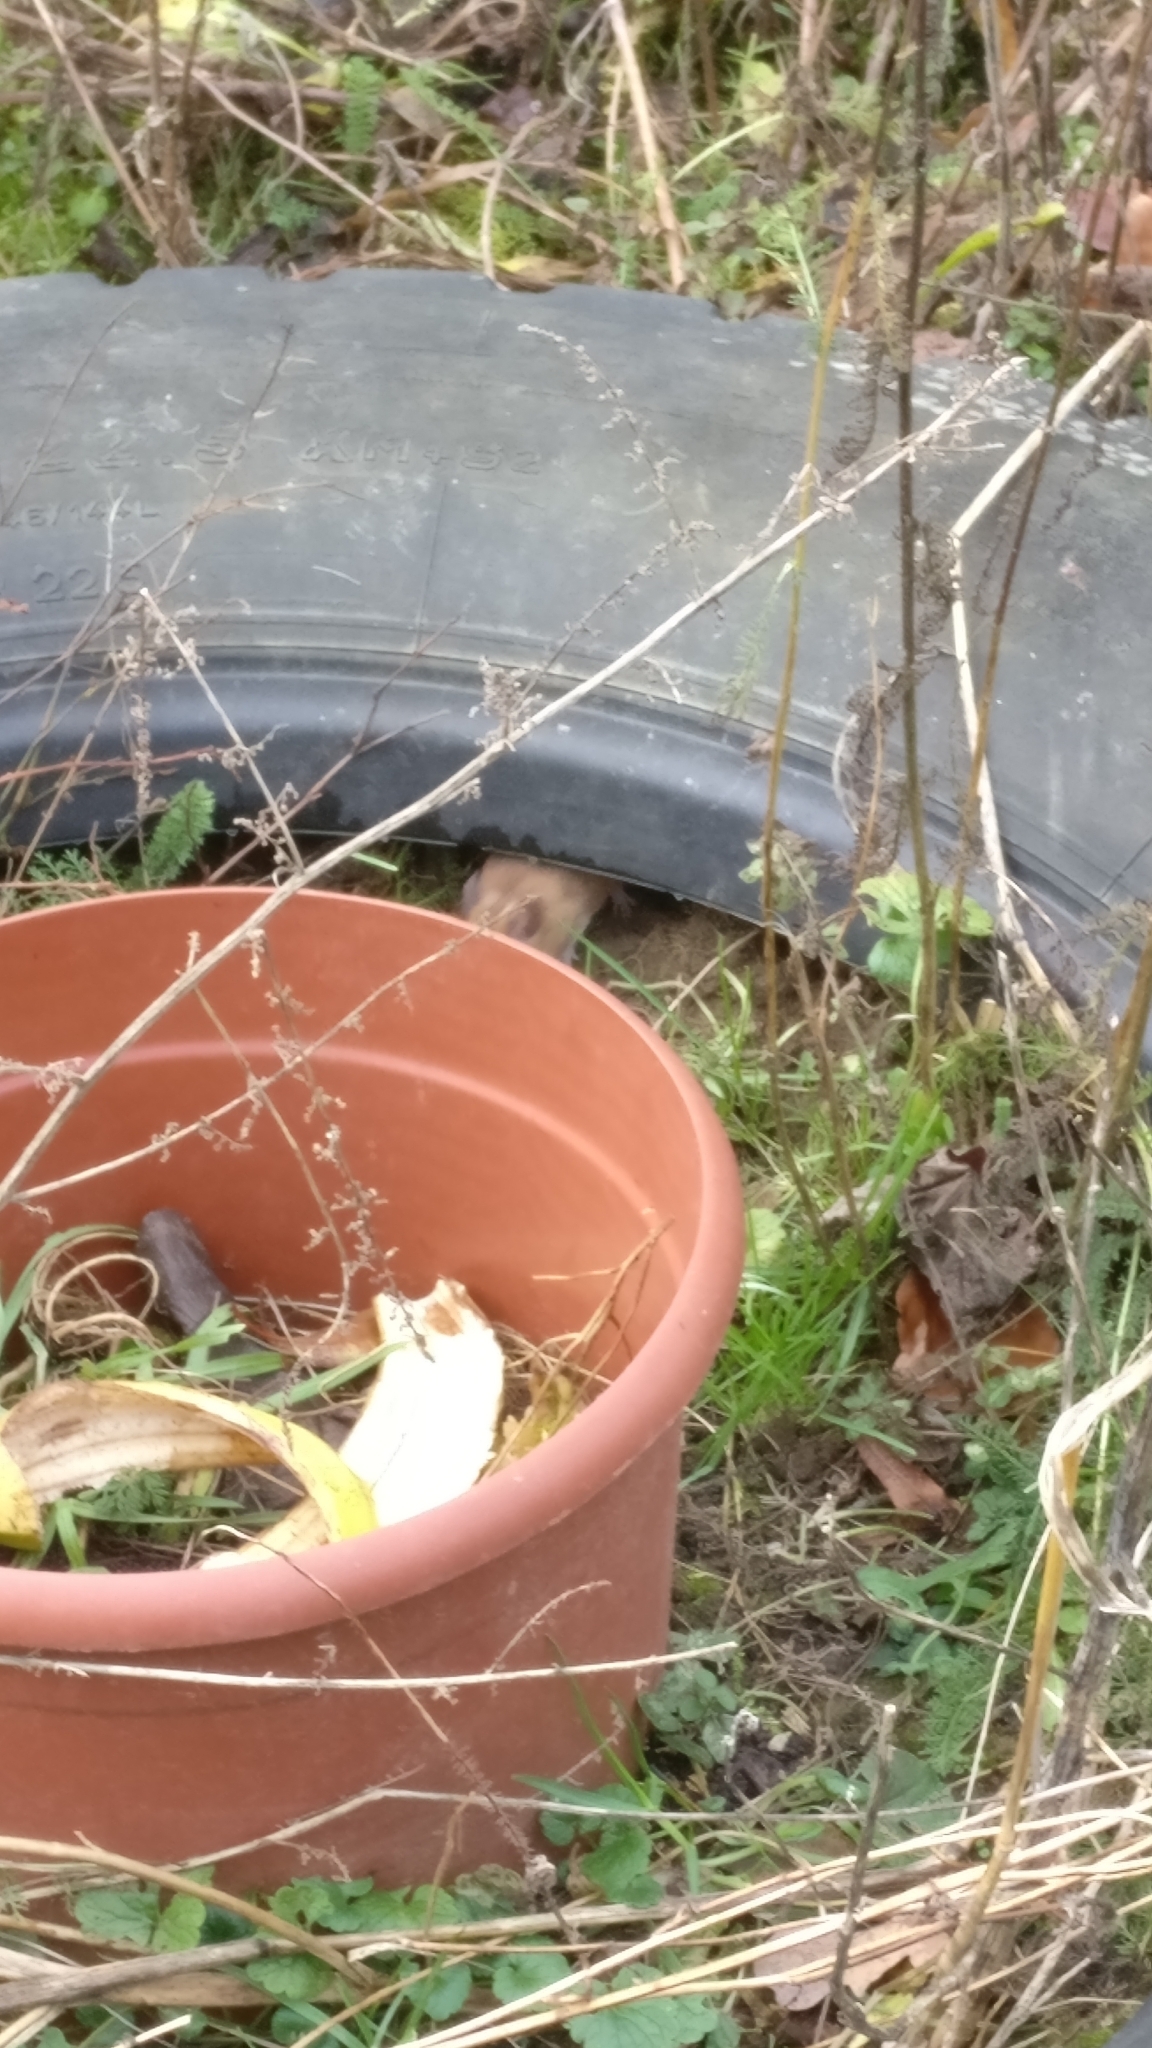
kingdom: Animalia
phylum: Chordata
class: Mammalia
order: Rodentia
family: Muridae
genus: Apodemus
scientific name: Apodemus sylvaticus
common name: Wood mouse
